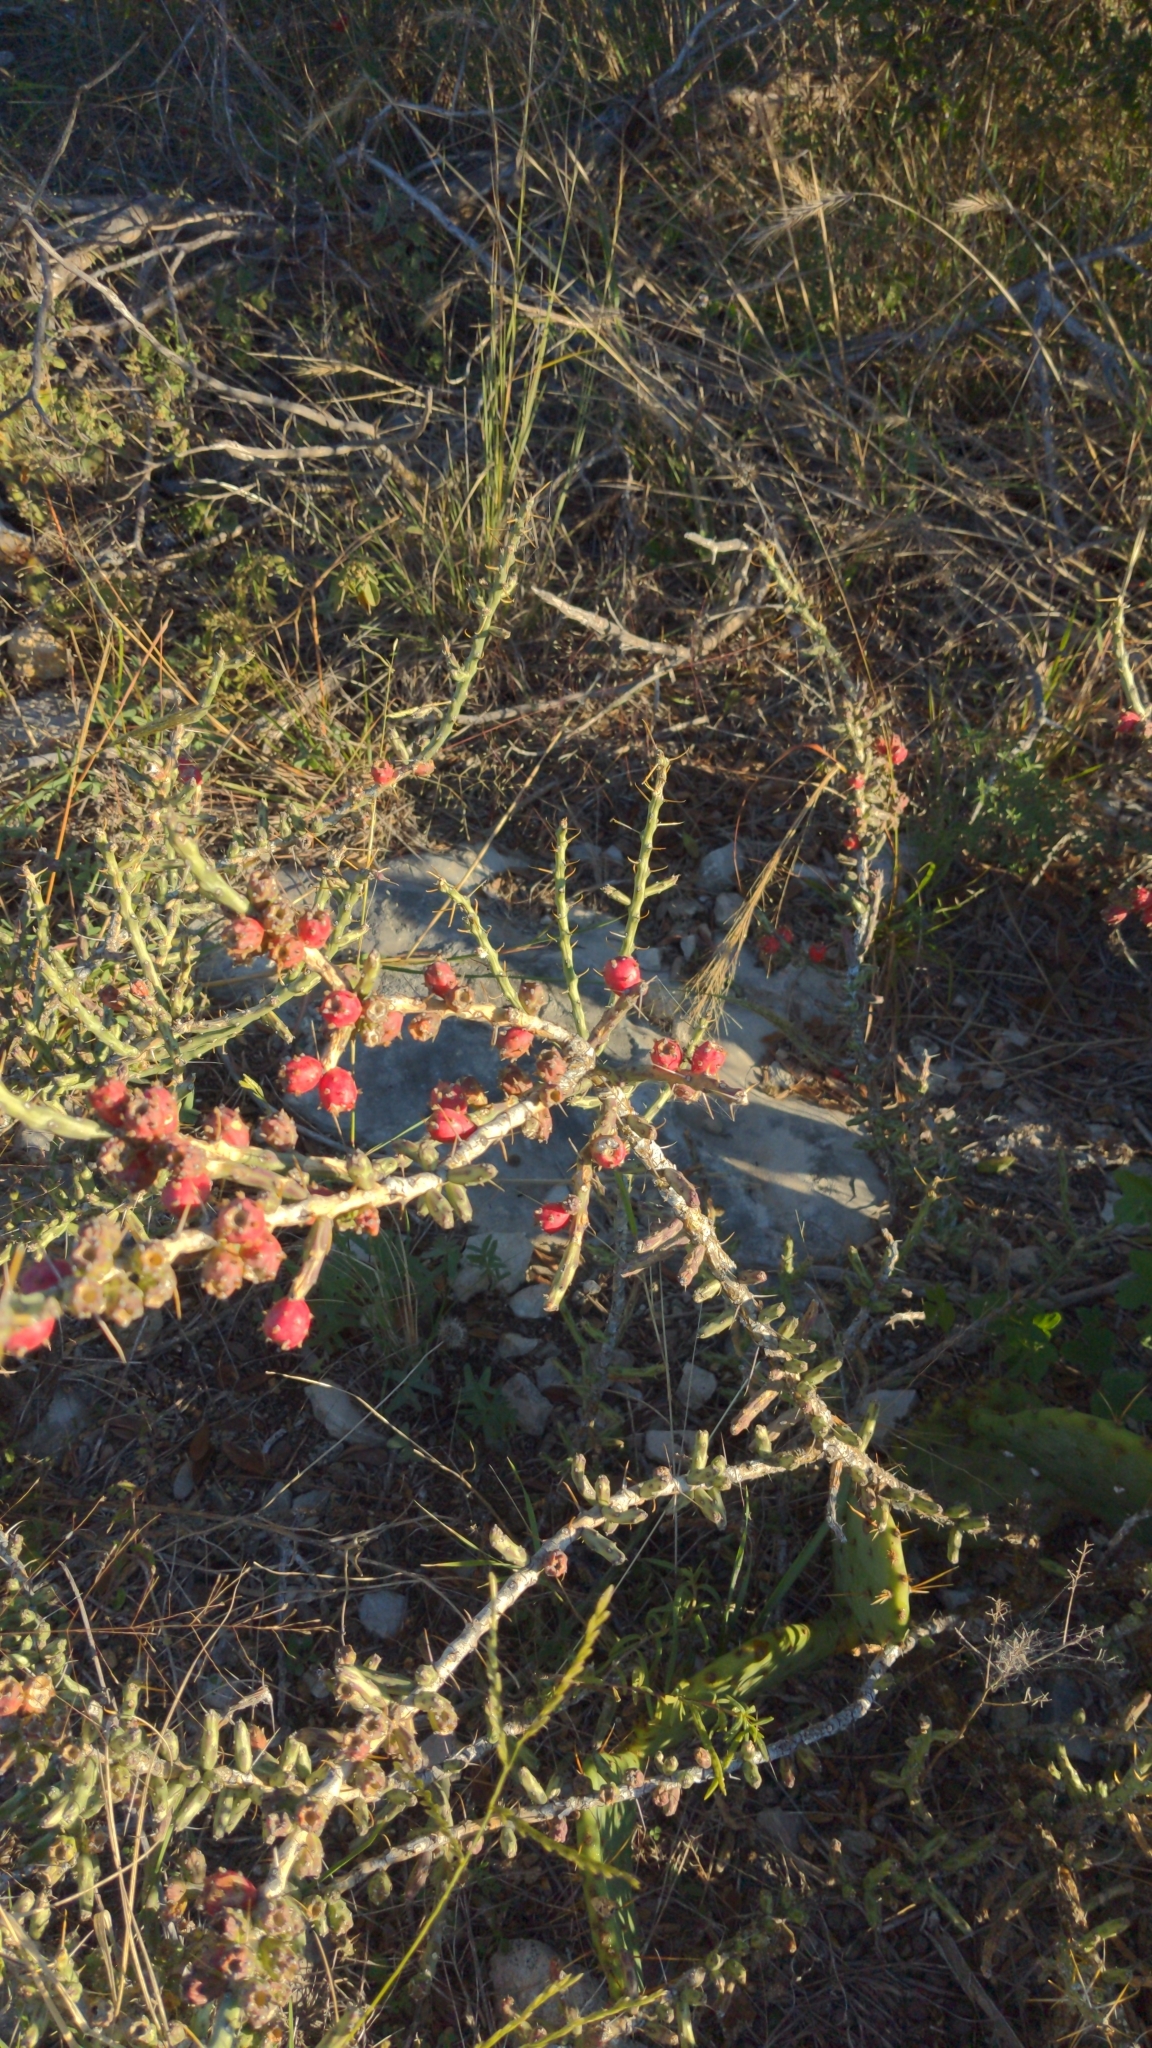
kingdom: Plantae
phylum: Tracheophyta
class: Magnoliopsida
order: Caryophyllales
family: Cactaceae
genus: Cylindropuntia
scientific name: Cylindropuntia leptocaulis
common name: Christmas cactus
